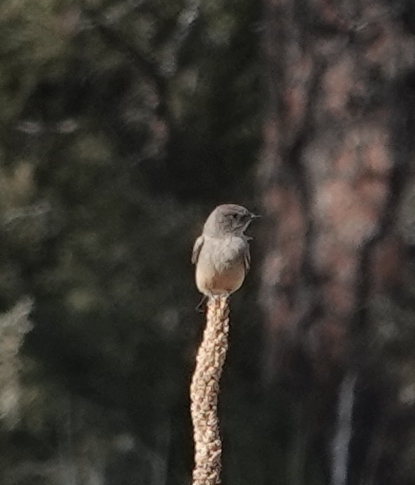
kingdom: Animalia
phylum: Chordata
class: Aves
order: Passeriformes
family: Tyrannidae
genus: Sayornis
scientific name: Sayornis saya
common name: Say's phoebe
